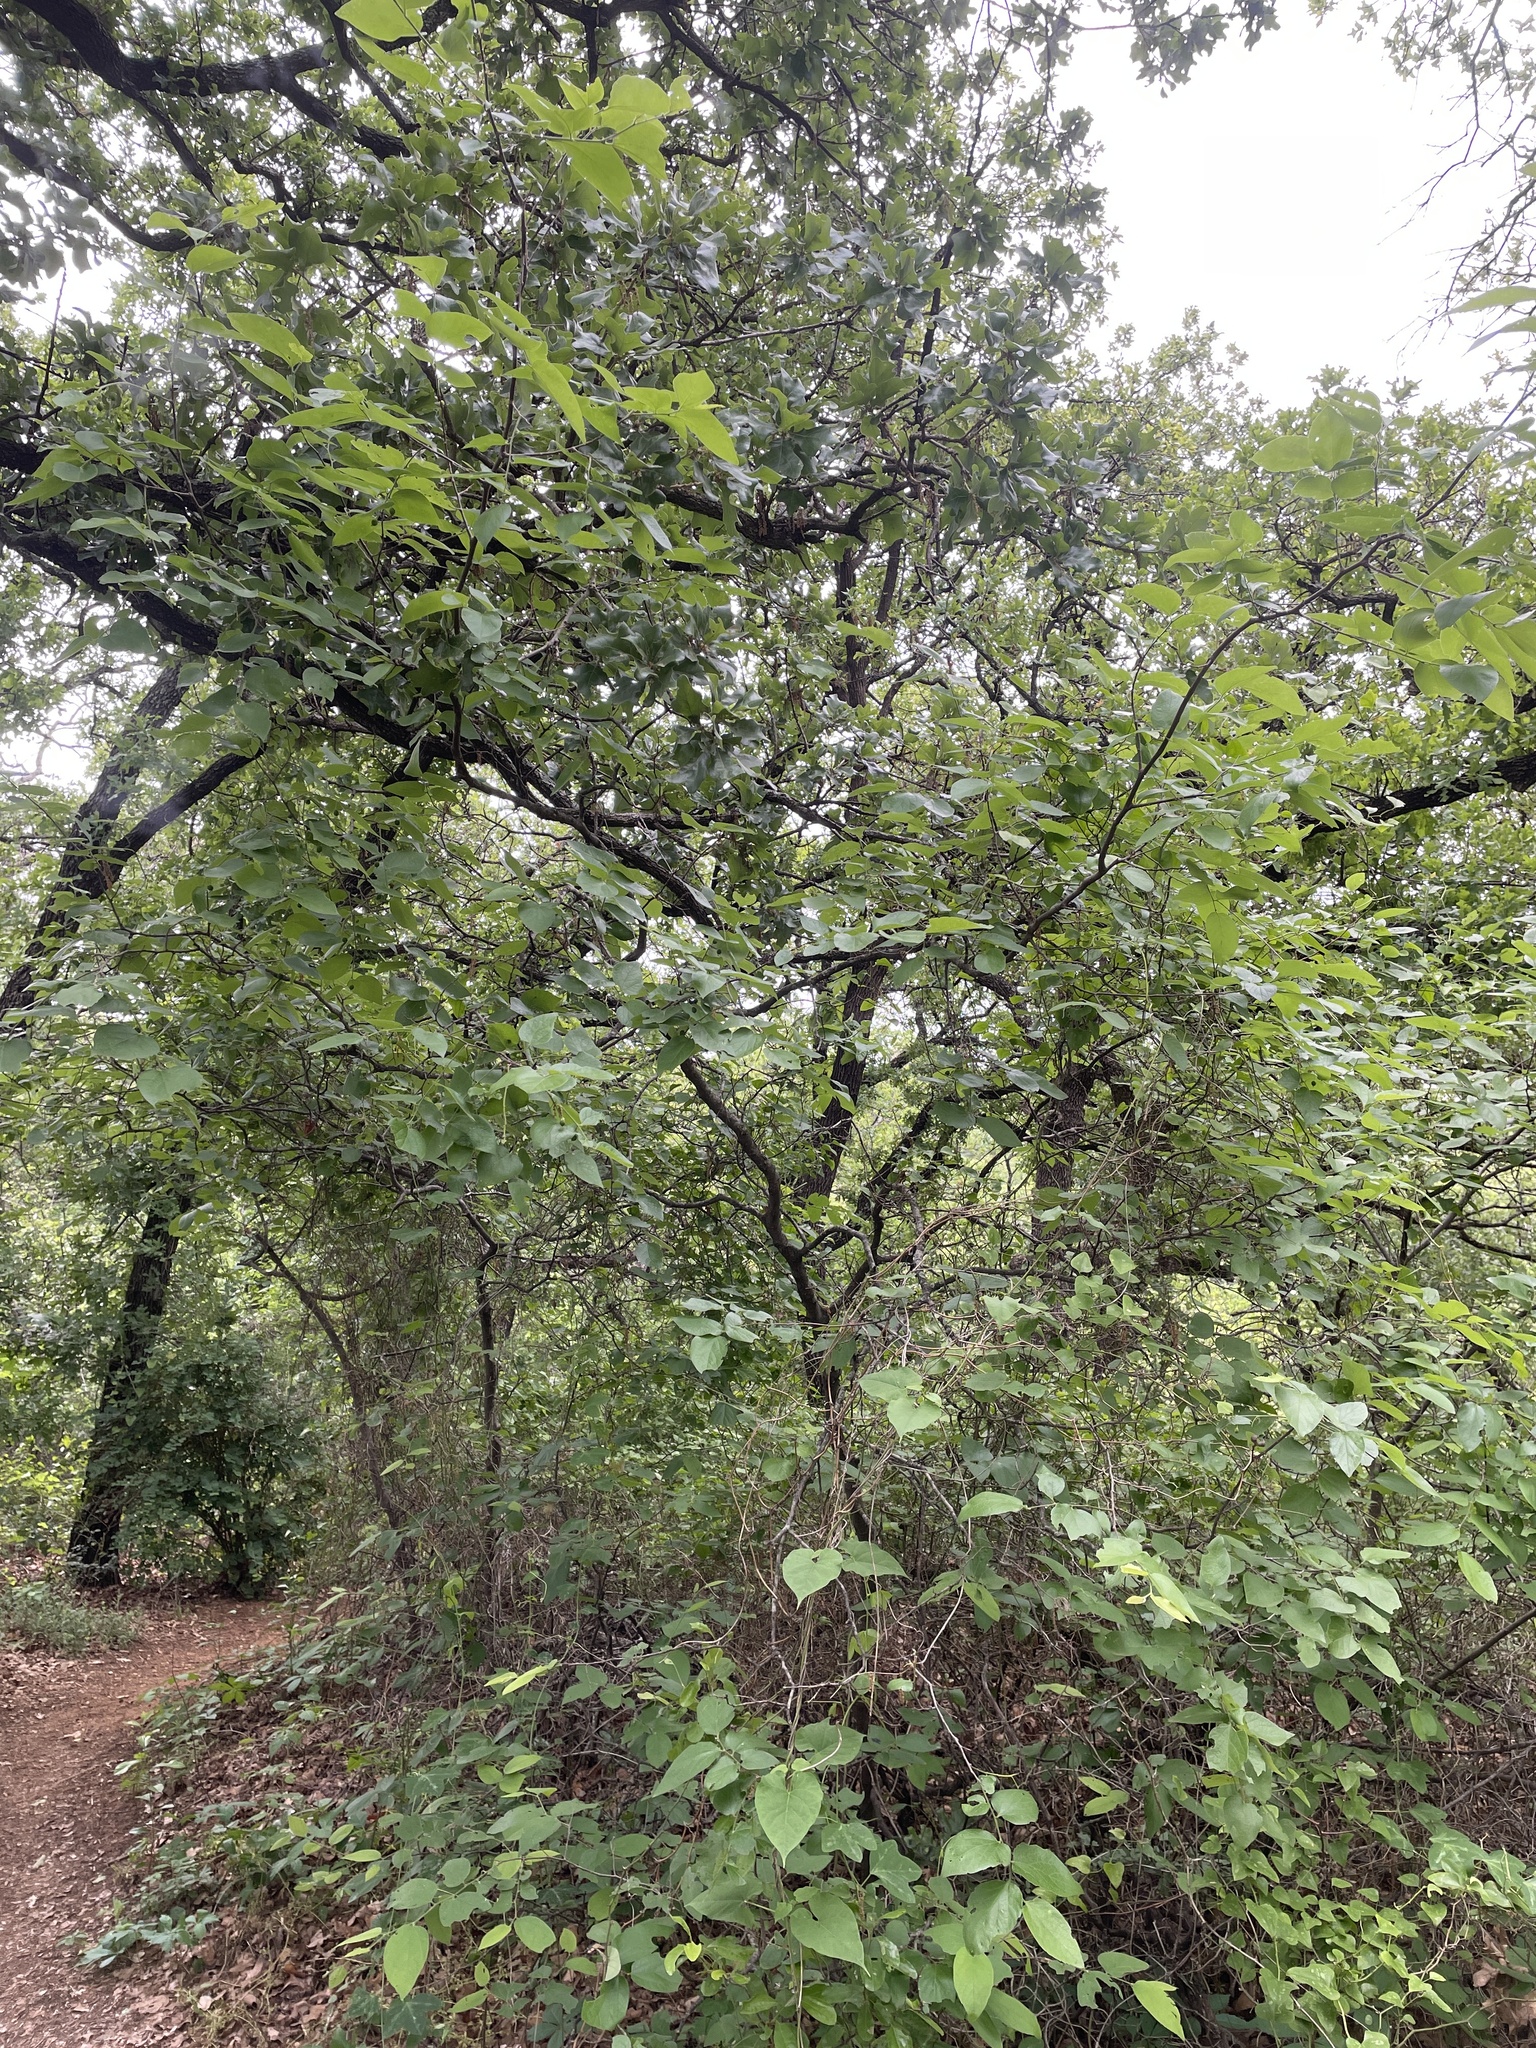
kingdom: Plantae
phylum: Tracheophyta
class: Magnoliopsida
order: Rosales
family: Cannabaceae
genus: Celtis
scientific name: Celtis reticulata
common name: Netleaf hackberry
